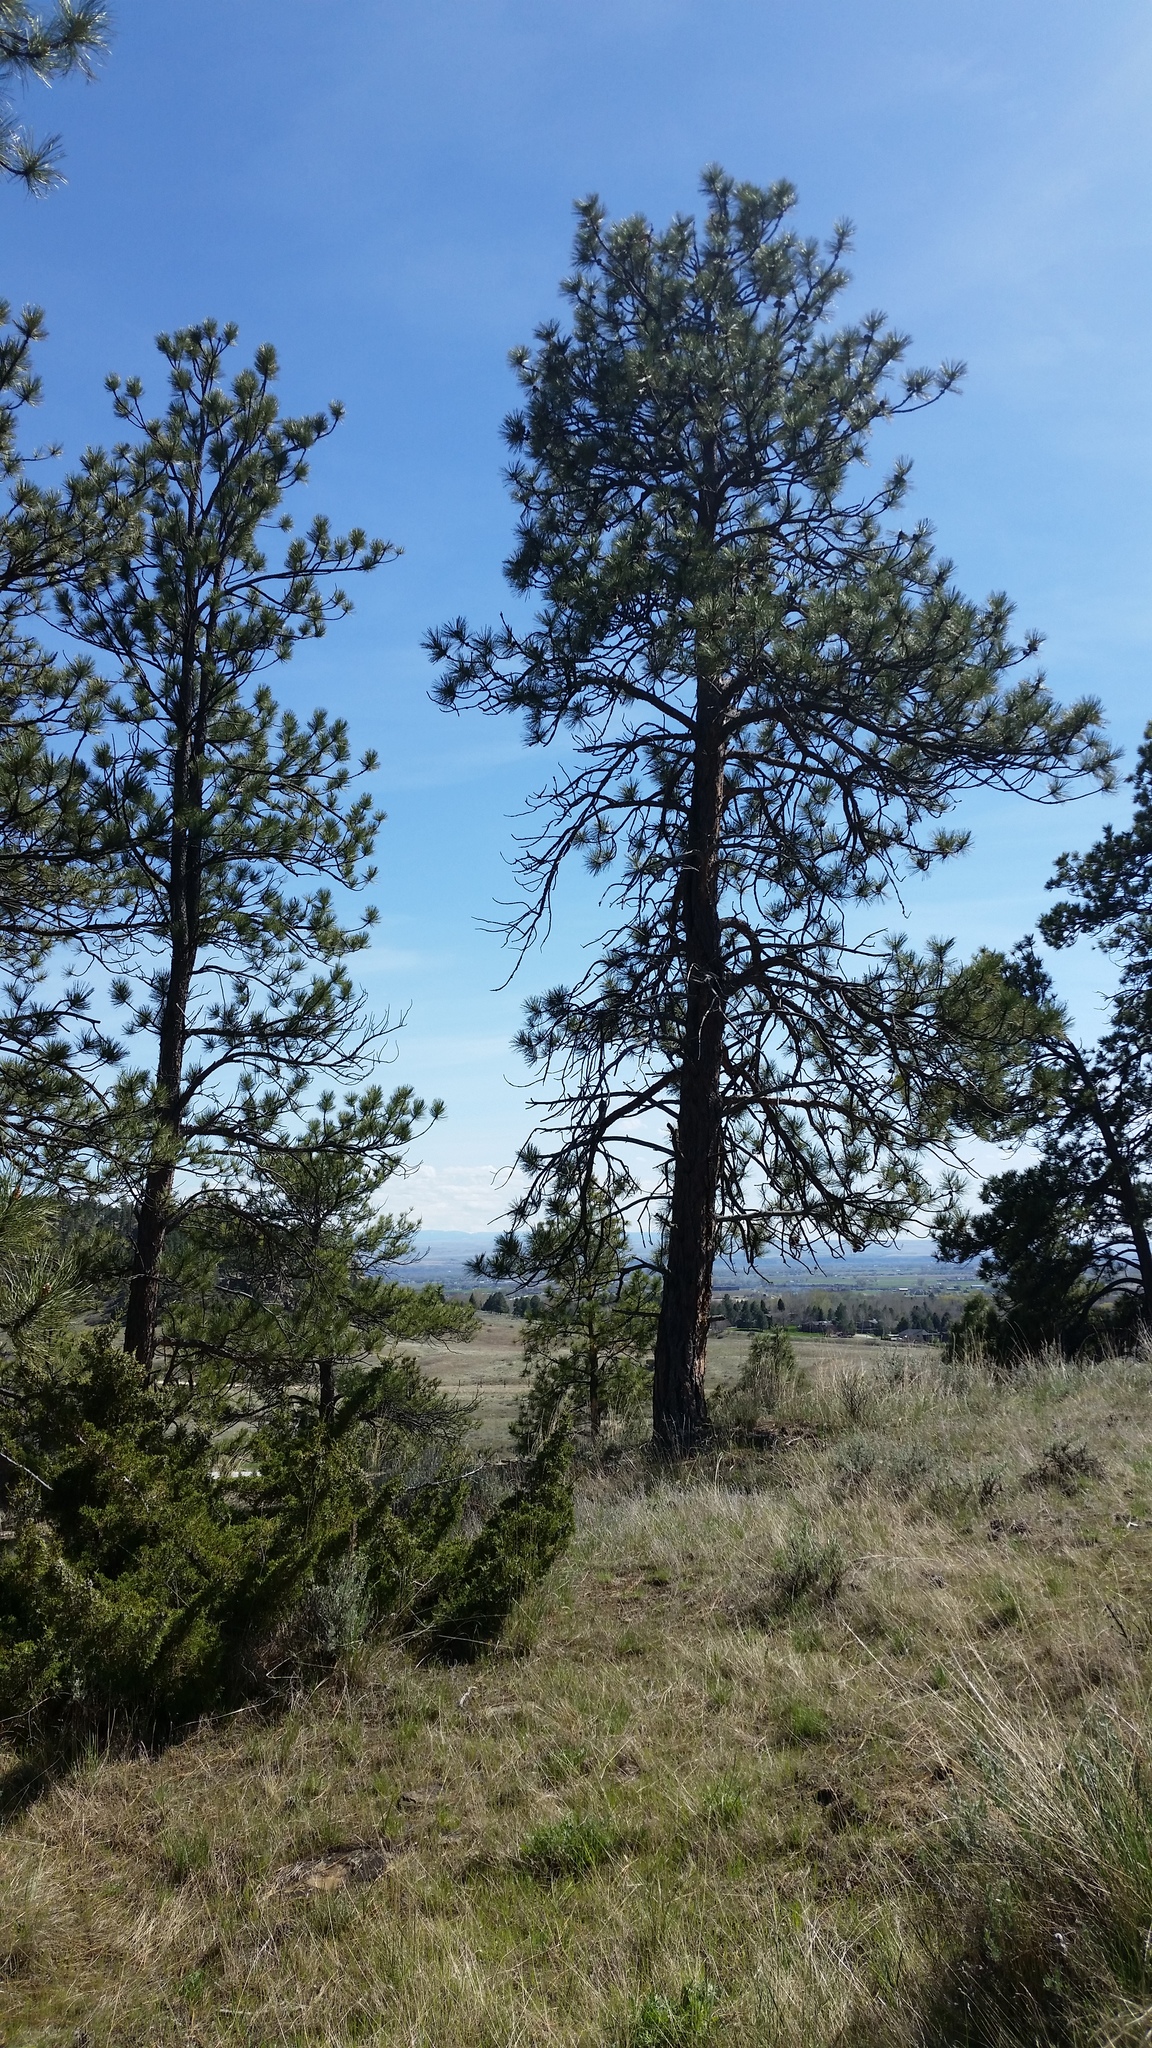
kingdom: Plantae
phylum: Tracheophyta
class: Pinopsida
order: Pinales
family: Pinaceae
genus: Pinus
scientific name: Pinus ponderosa
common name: Western yellow-pine
